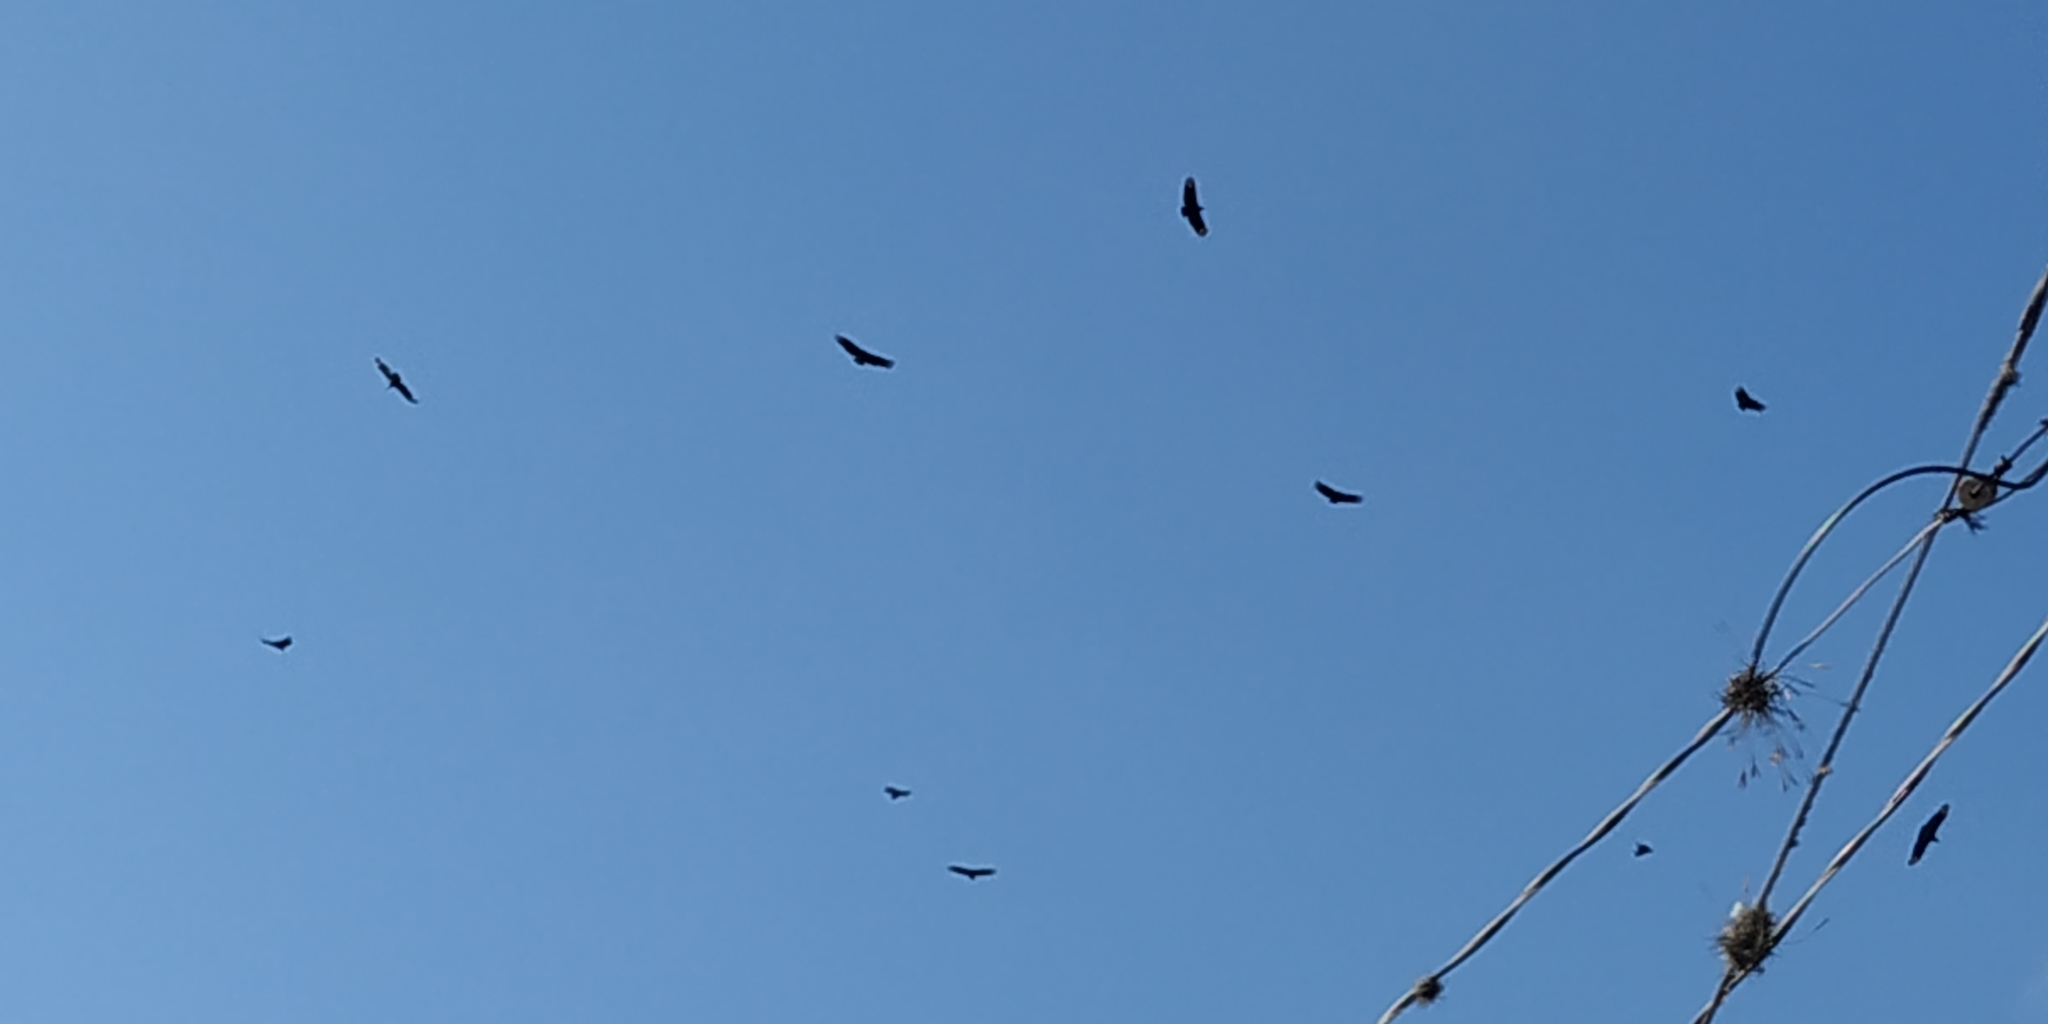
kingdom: Animalia
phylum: Chordata
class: Aves
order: Accipitriformes
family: Cathartidae
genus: Coragyps
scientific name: Coragyps atratus
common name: Black vulture
